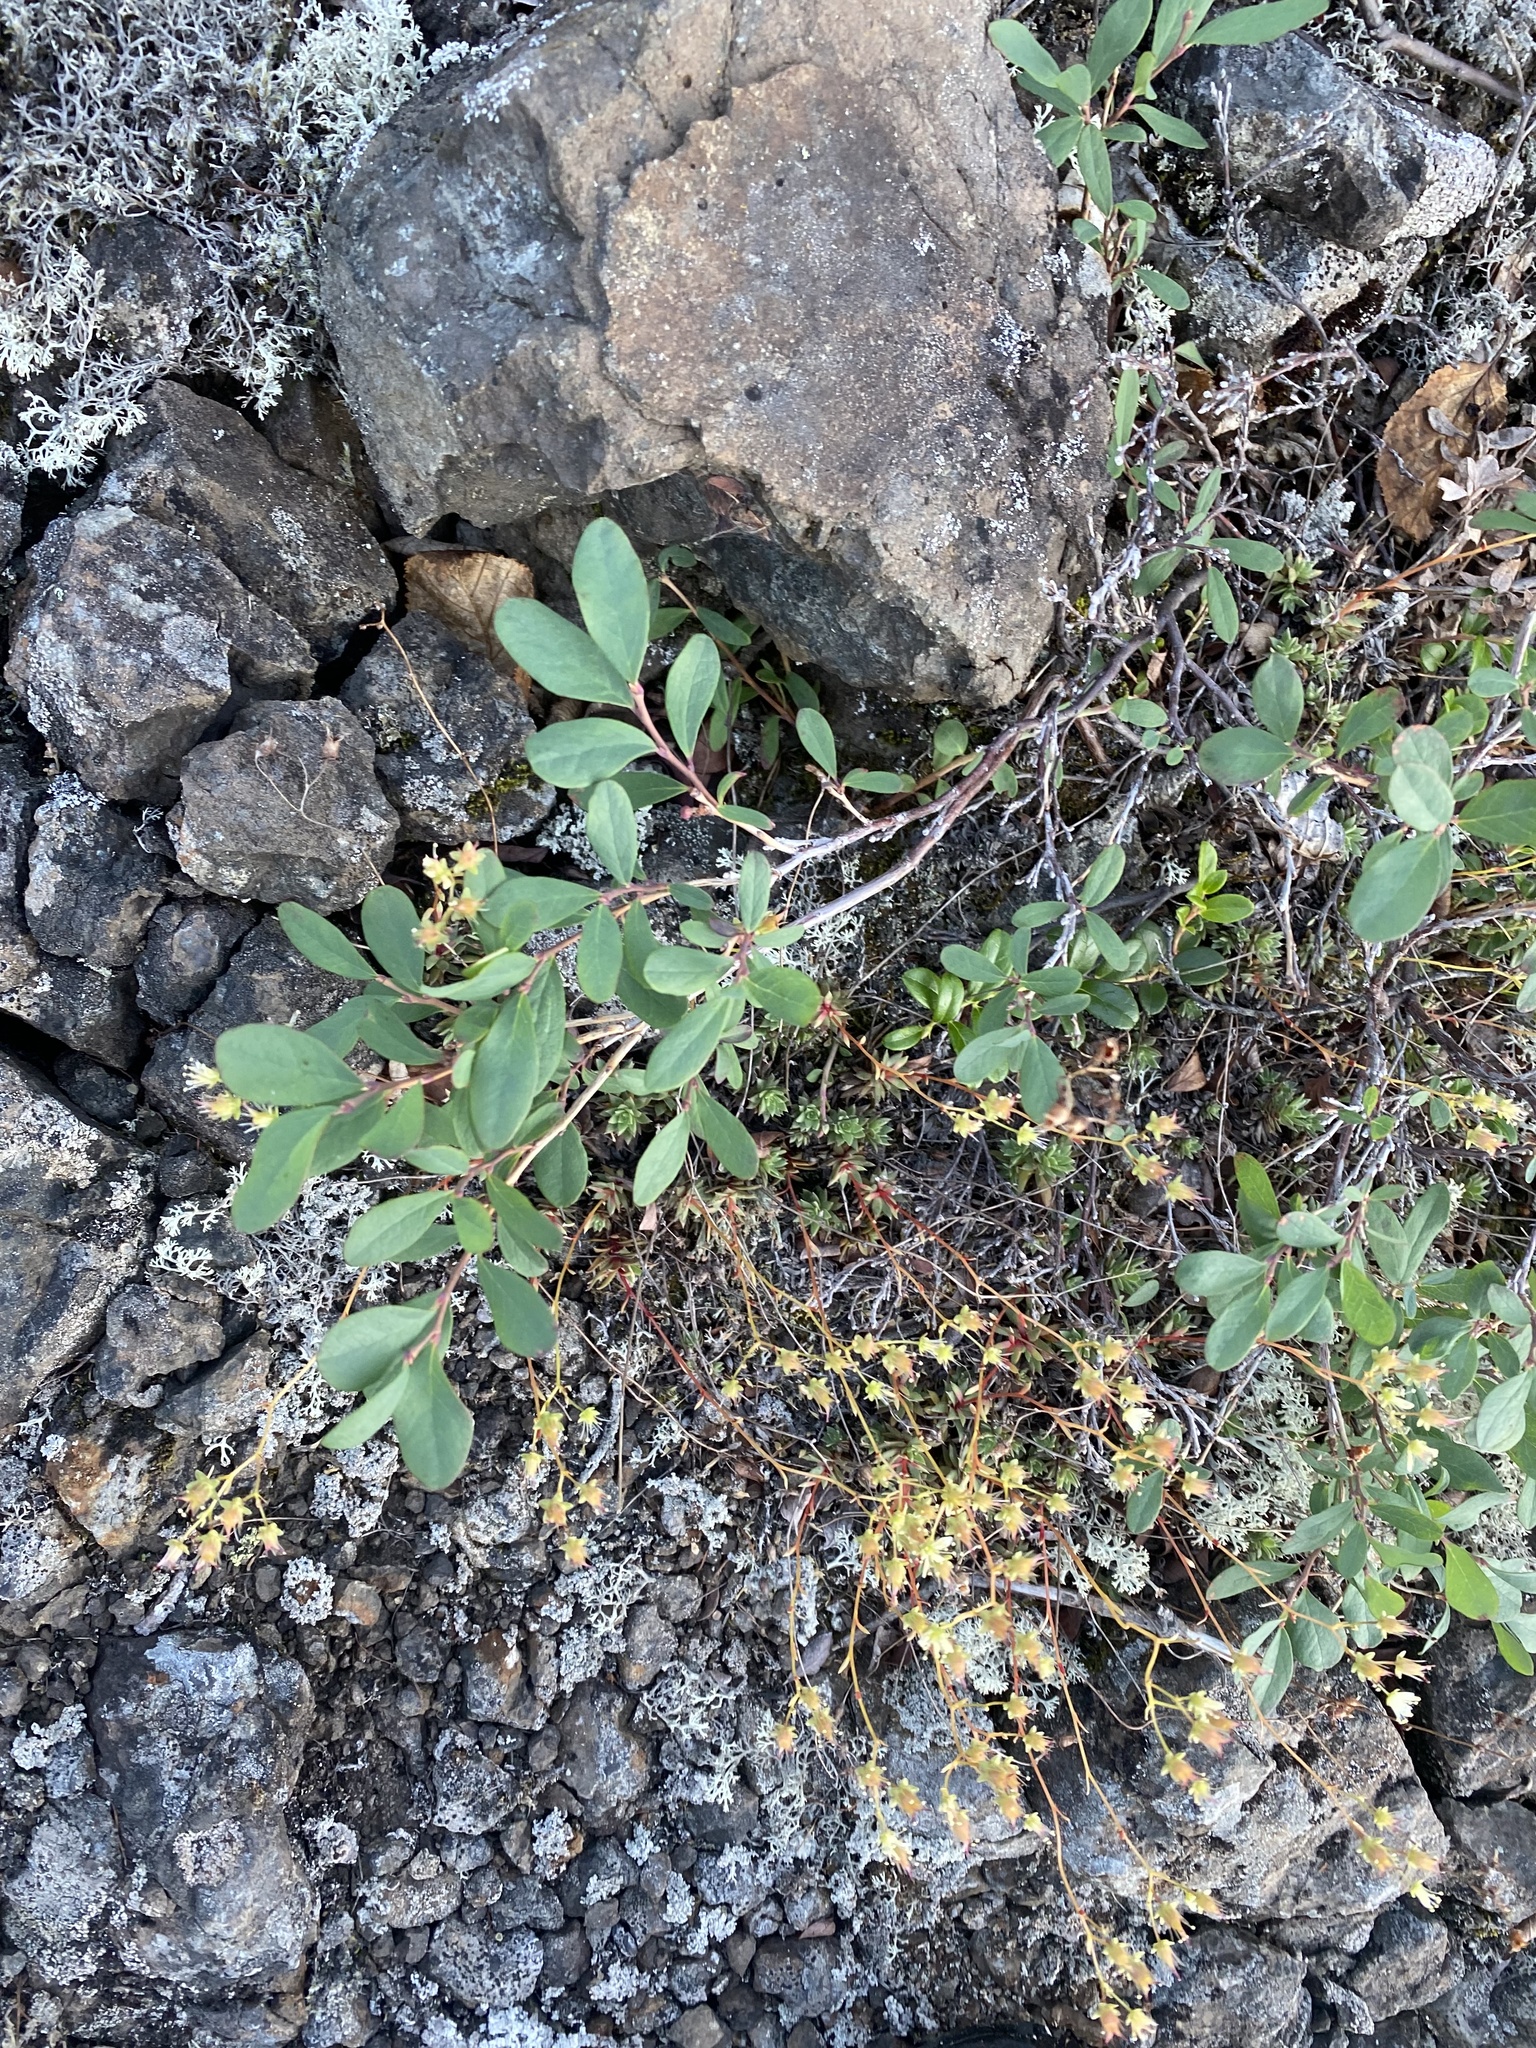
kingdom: Plantae
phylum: Tracheophyta
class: Magnoliopsida
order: Ericales
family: Ericaceae
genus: Vaccinium
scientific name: Vaccinium uliginosum
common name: Bog bilberry
